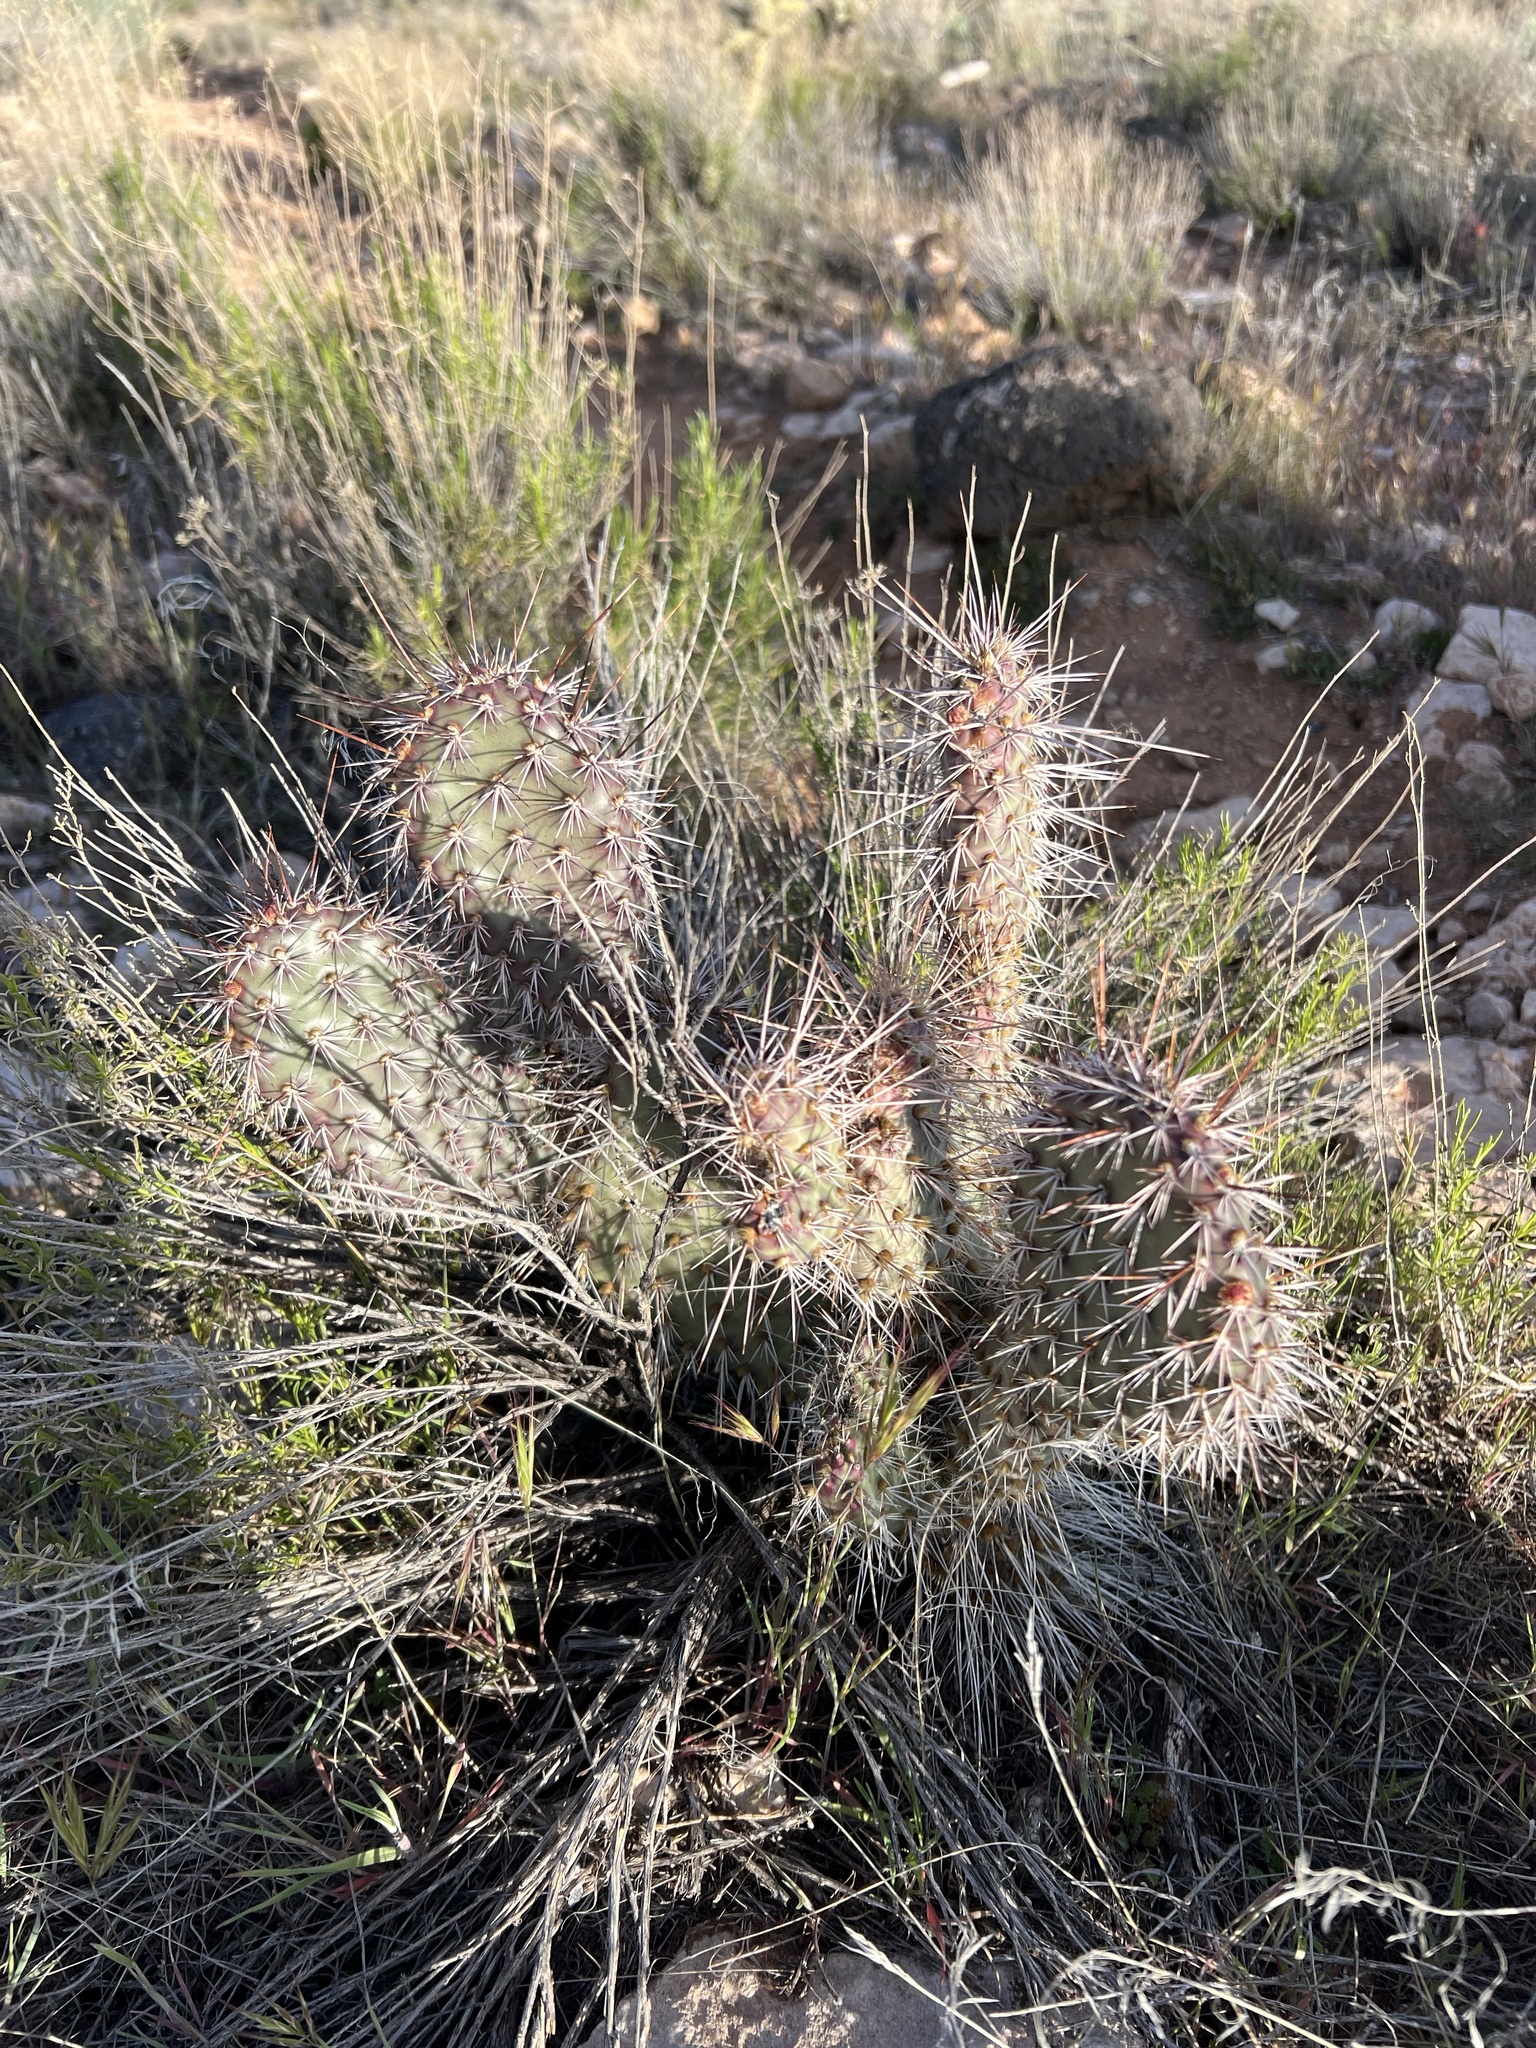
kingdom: Plantae
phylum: Tracheophyta
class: Magnoliopsida
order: Caryophyllales
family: Cactaceae
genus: Opuntia
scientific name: Opuntia polyacantha
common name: Plains prickly-pear
